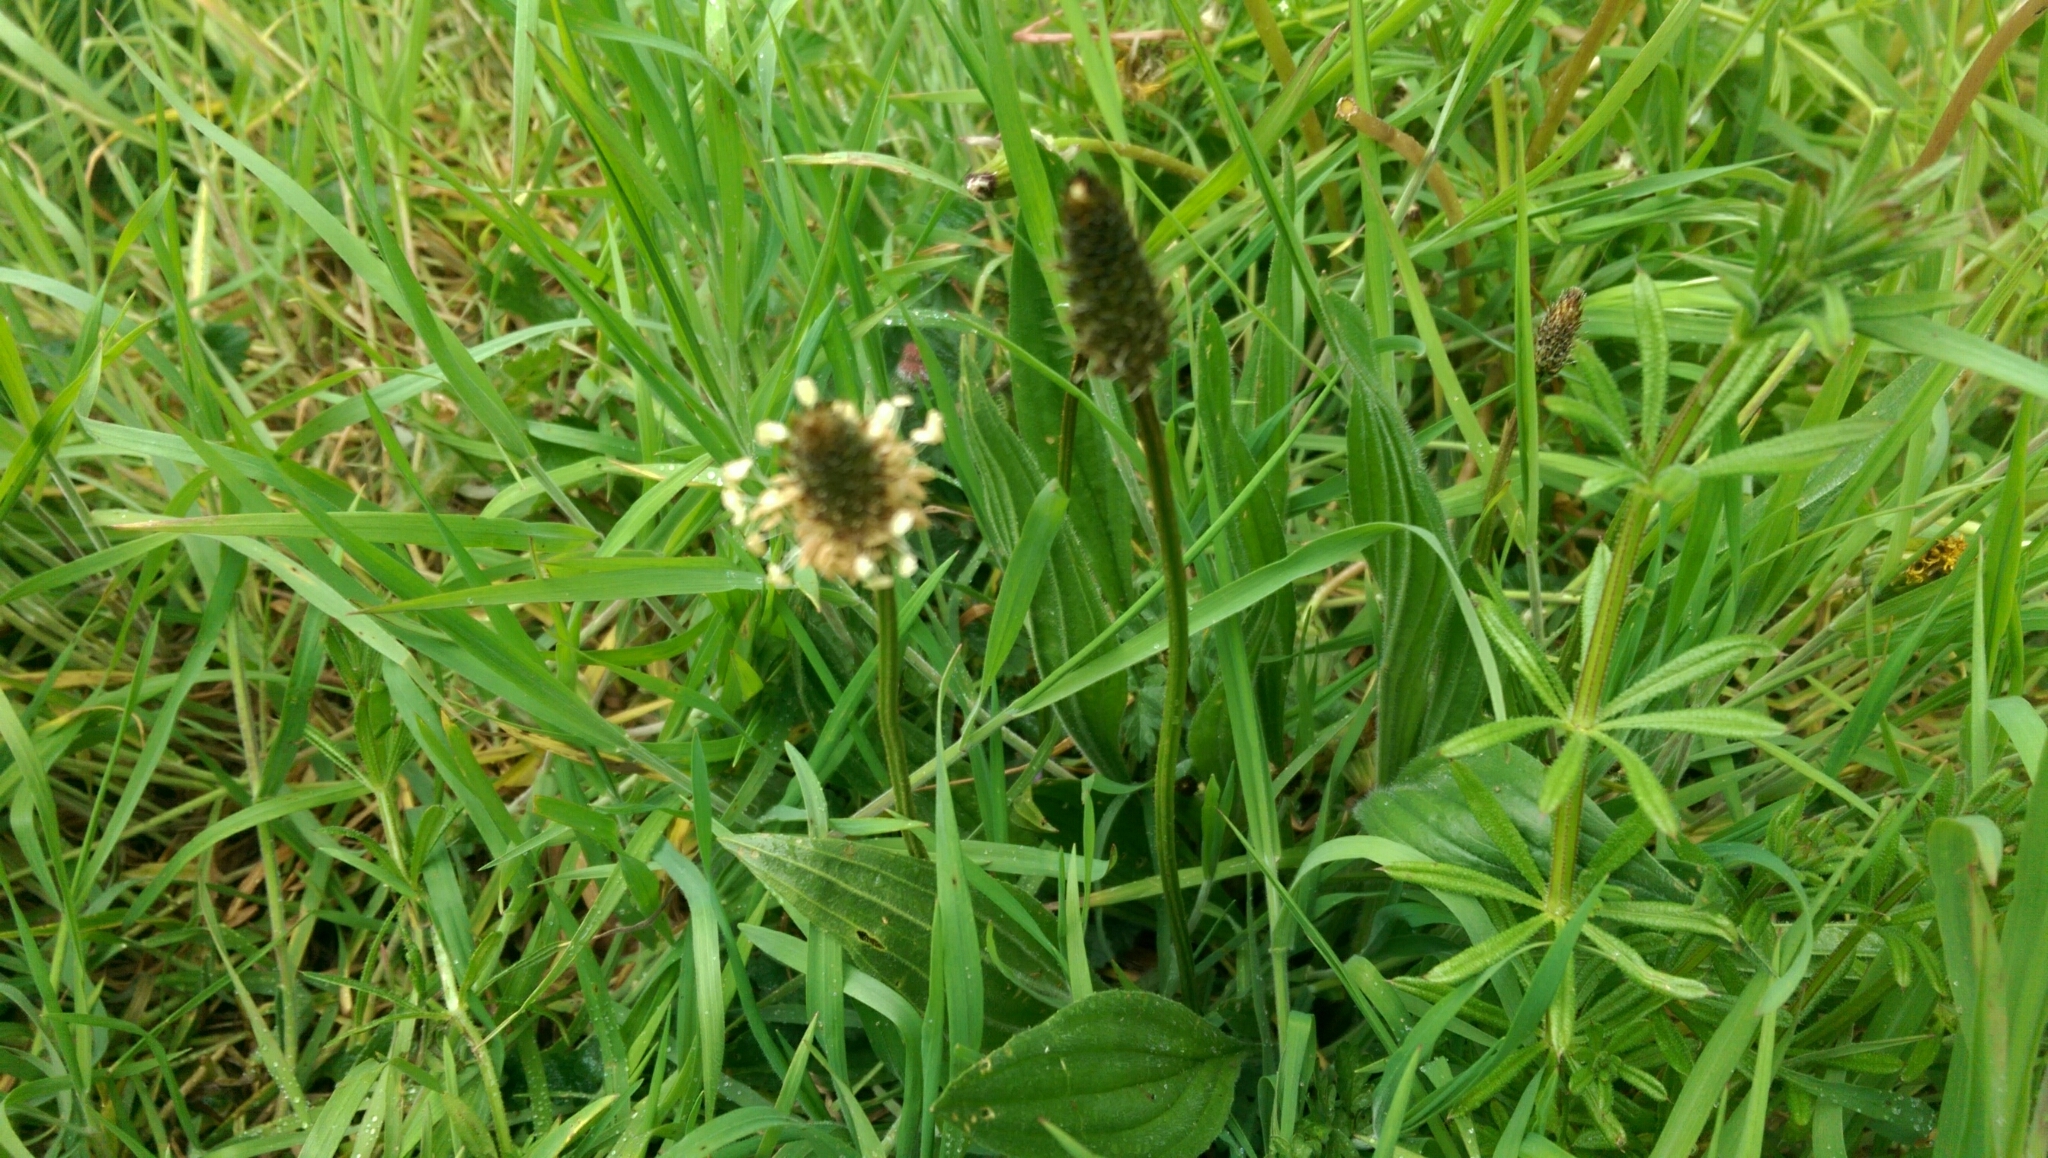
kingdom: Plantae
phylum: Tracheophyta
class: Magnoliopsida
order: Lamiales
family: Plantaginaceae
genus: Plantago
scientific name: Plantago lanceolata
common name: Ribwort plantain
